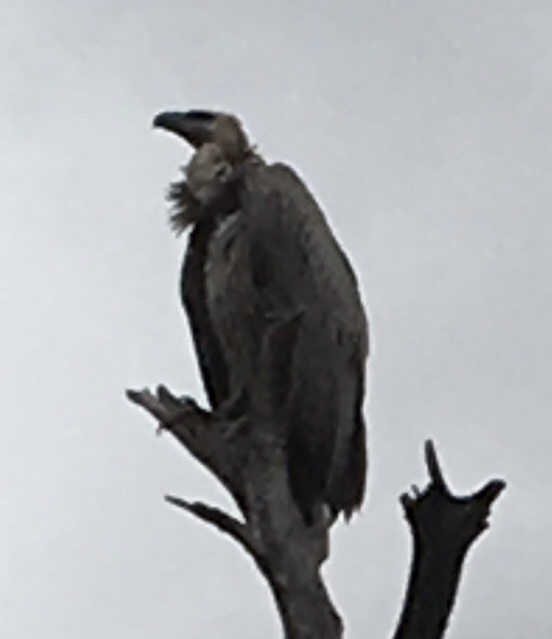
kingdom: Animalia
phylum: Chordata
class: Aves
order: Accipitriformes
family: Accipitridae
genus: Gyps
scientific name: Gyps africanus
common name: White-backed vulture
